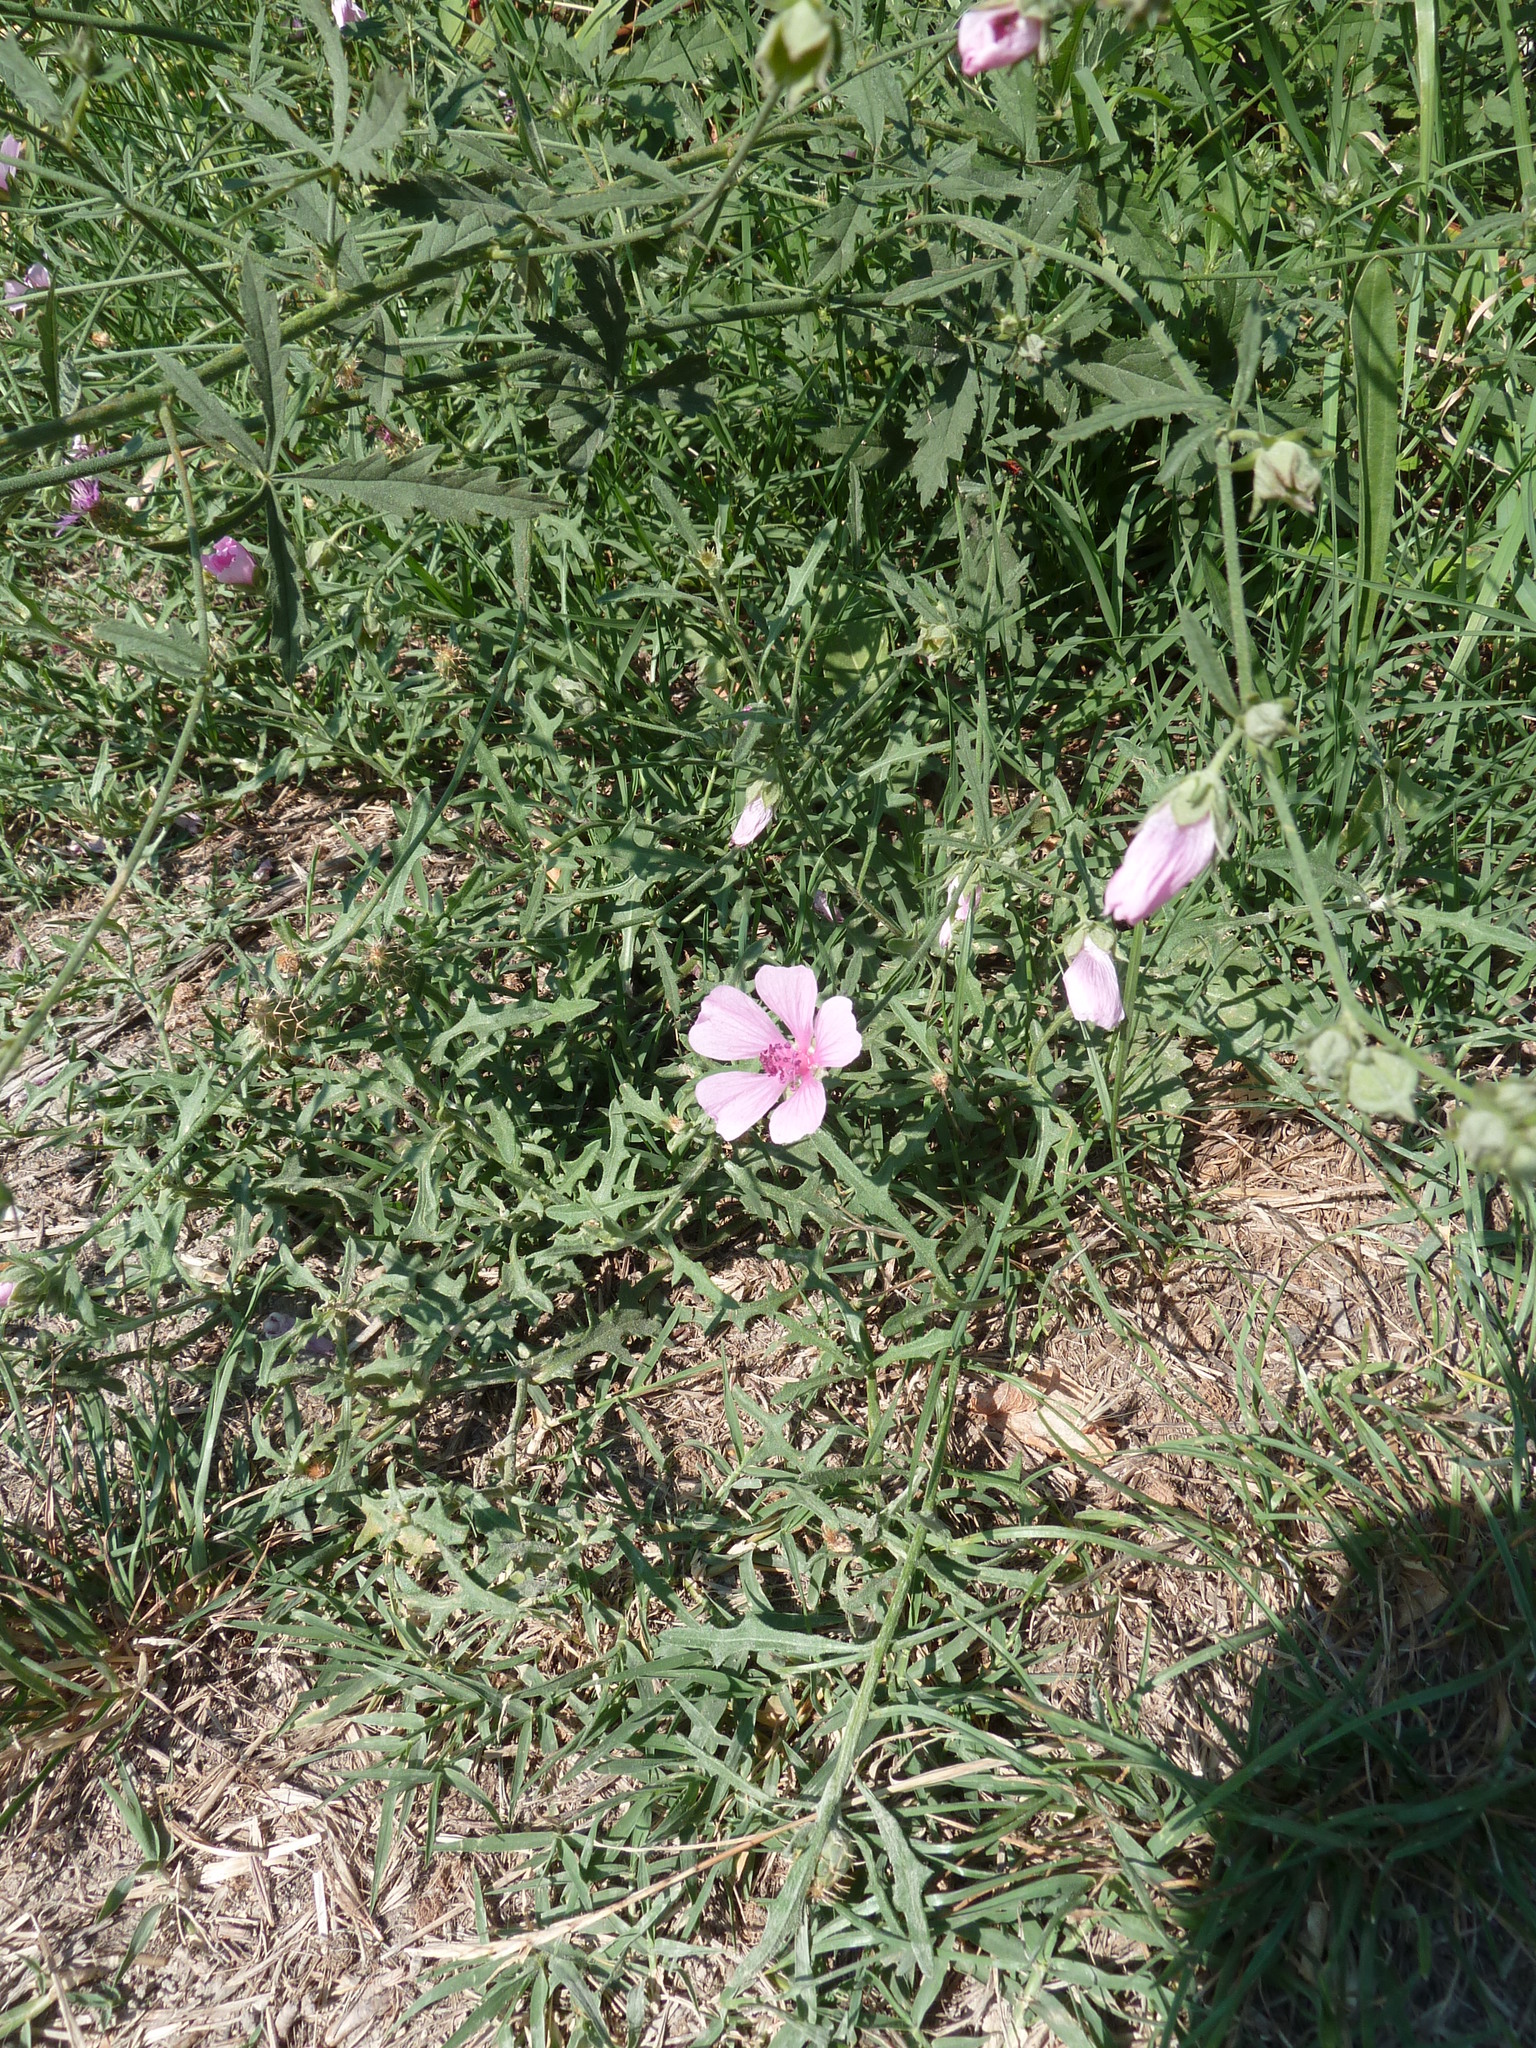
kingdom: Plantae
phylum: Tracheophyta
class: Magnoliopsida
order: Malvales
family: Malvaceae
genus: Althaea
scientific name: Althaea cannabina
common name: Palm-leaf marshmallow
